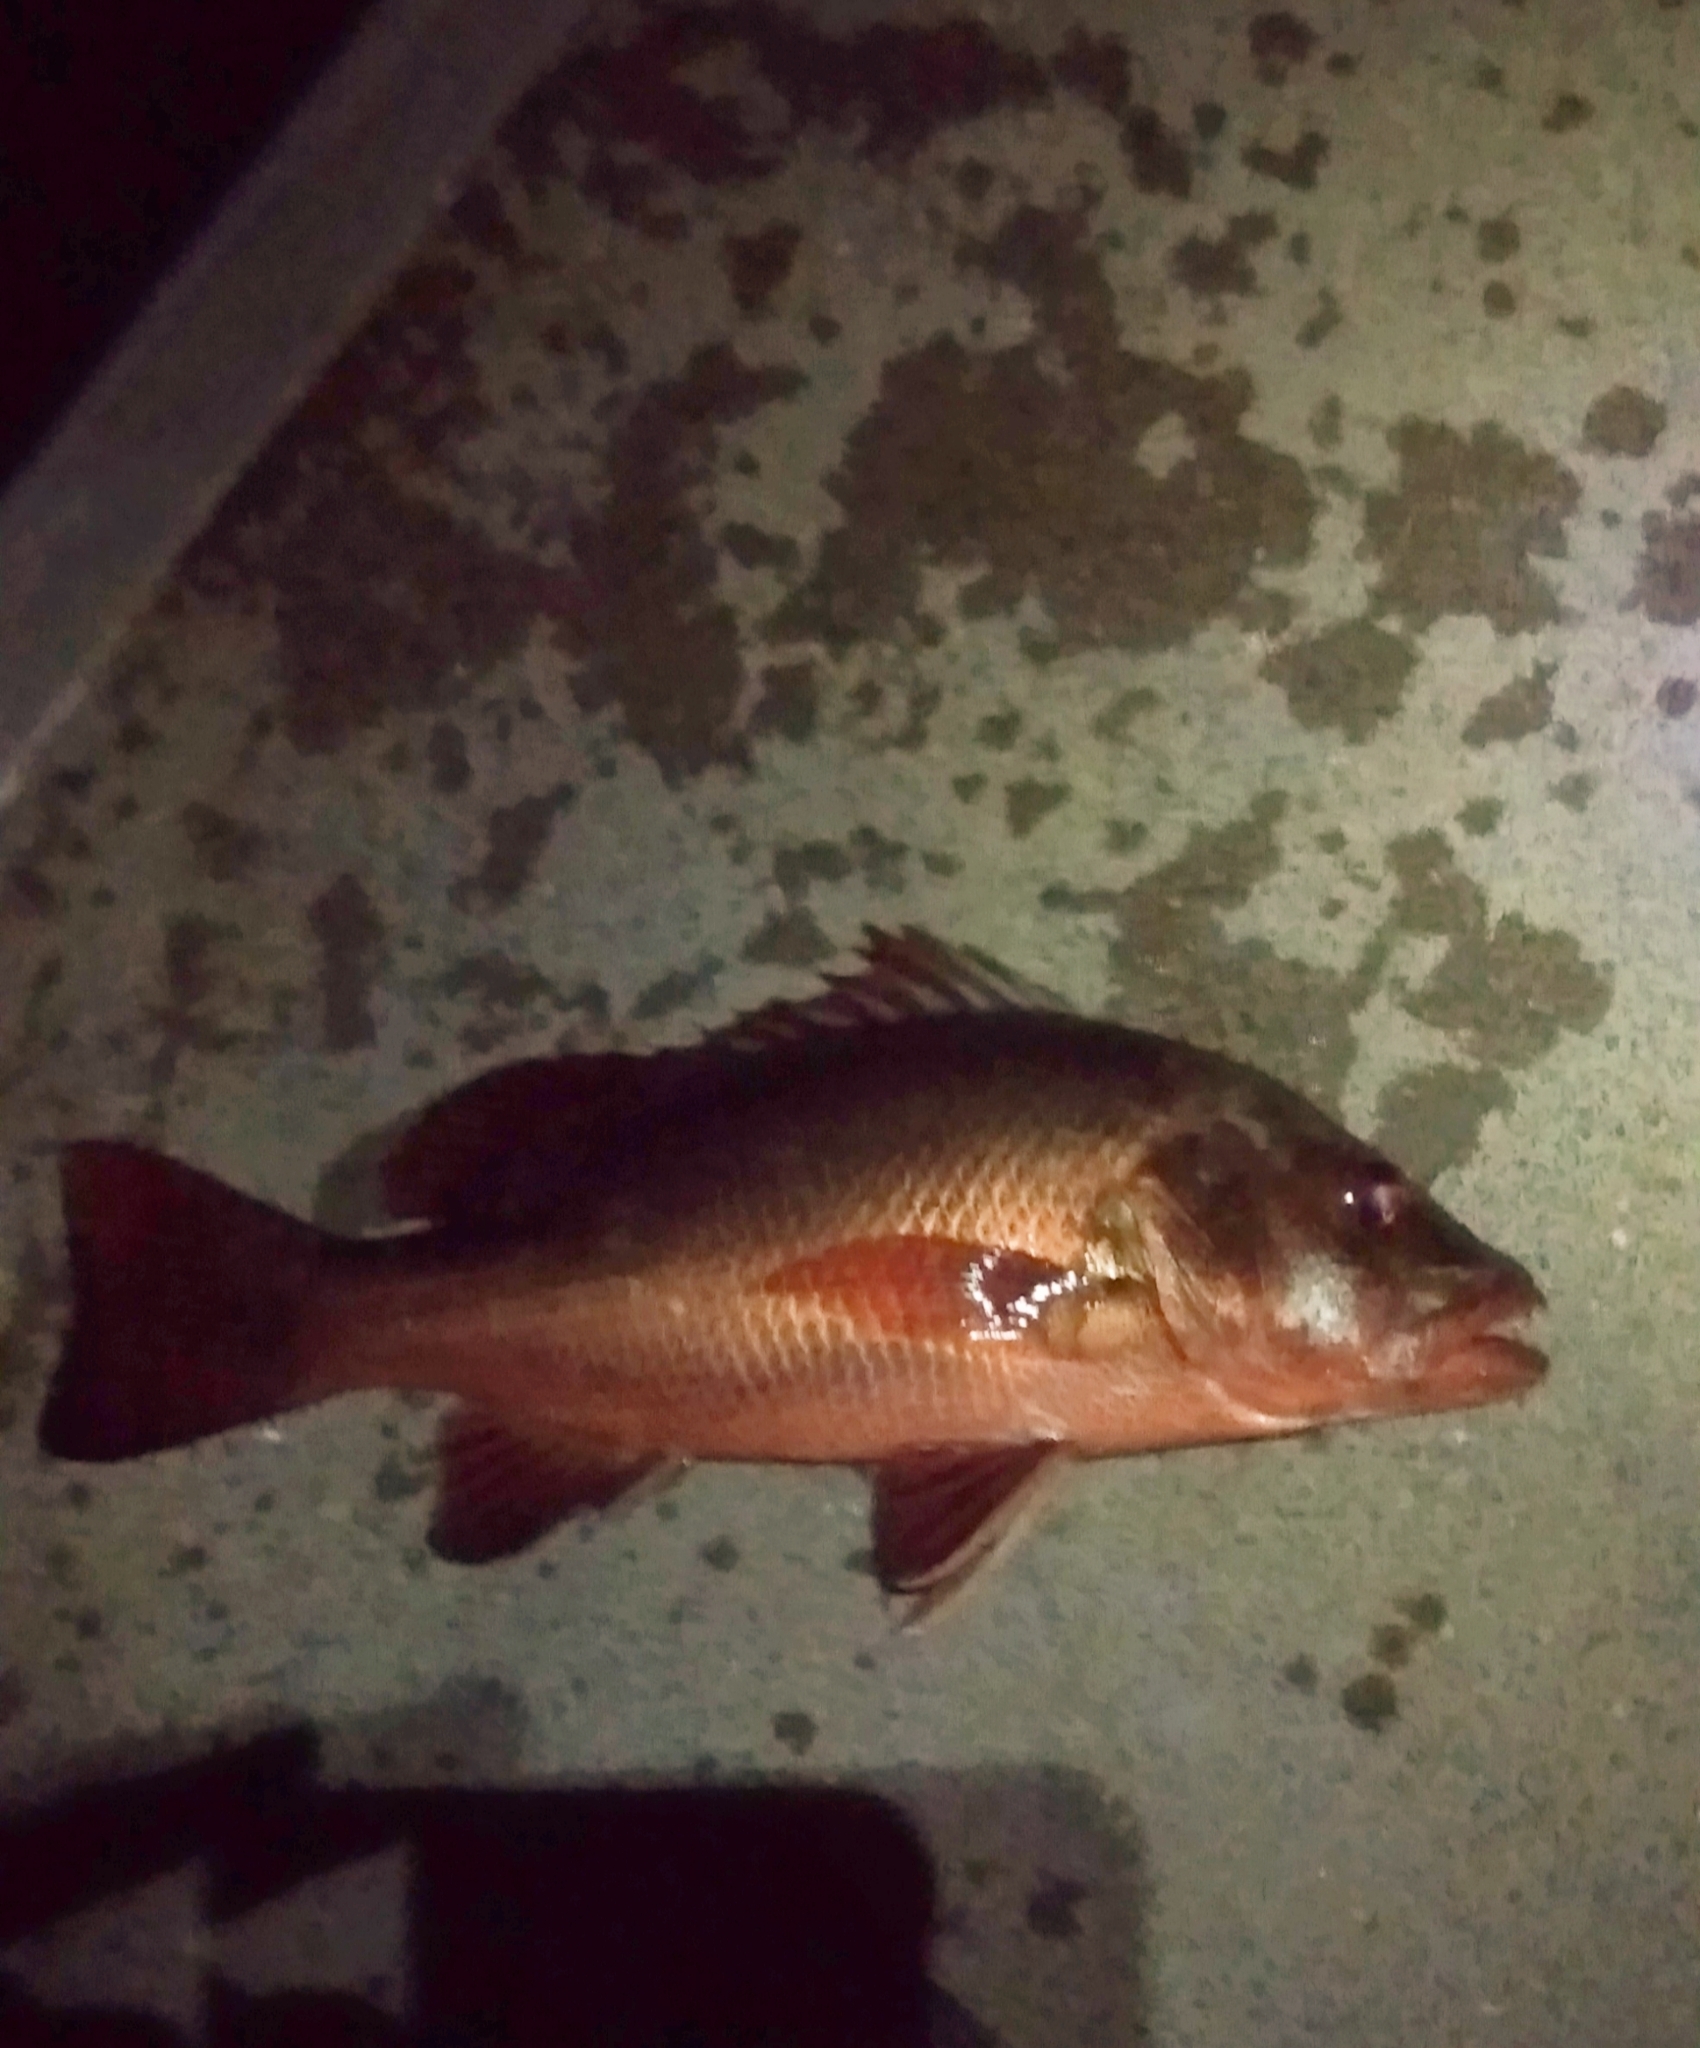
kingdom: Animalia
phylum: Chordata
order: Perciformes
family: Lutjanidae
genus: Lutjanus
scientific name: Lutjanus argentimaculatus
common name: Mangrove red snapper
